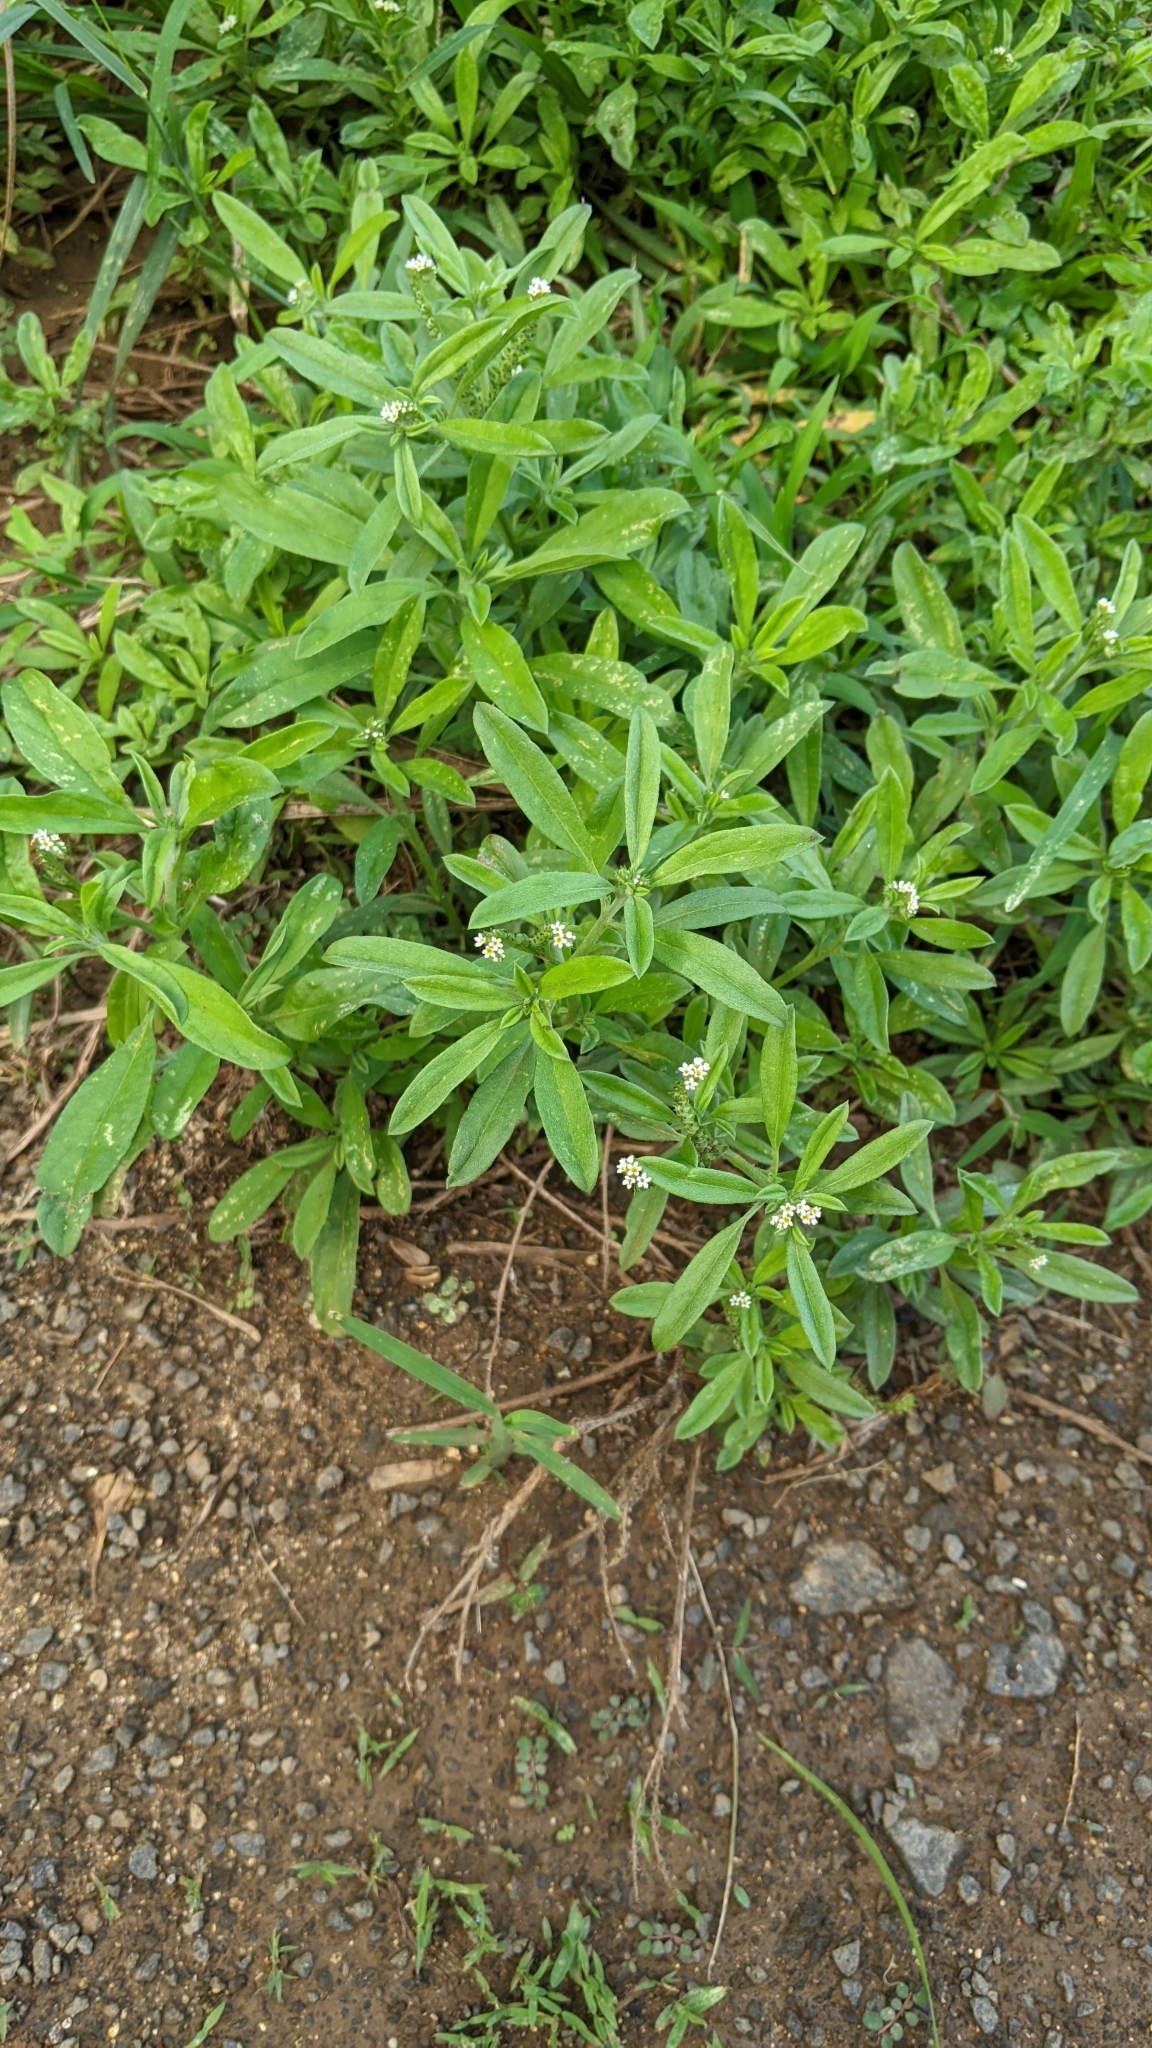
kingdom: Plantae
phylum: Tracheophyta
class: Magnoliopsida
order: Boraginales
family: Heliotropiaceae
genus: Euploca
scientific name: Euploca procumbens
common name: Fourspike heliotrope
